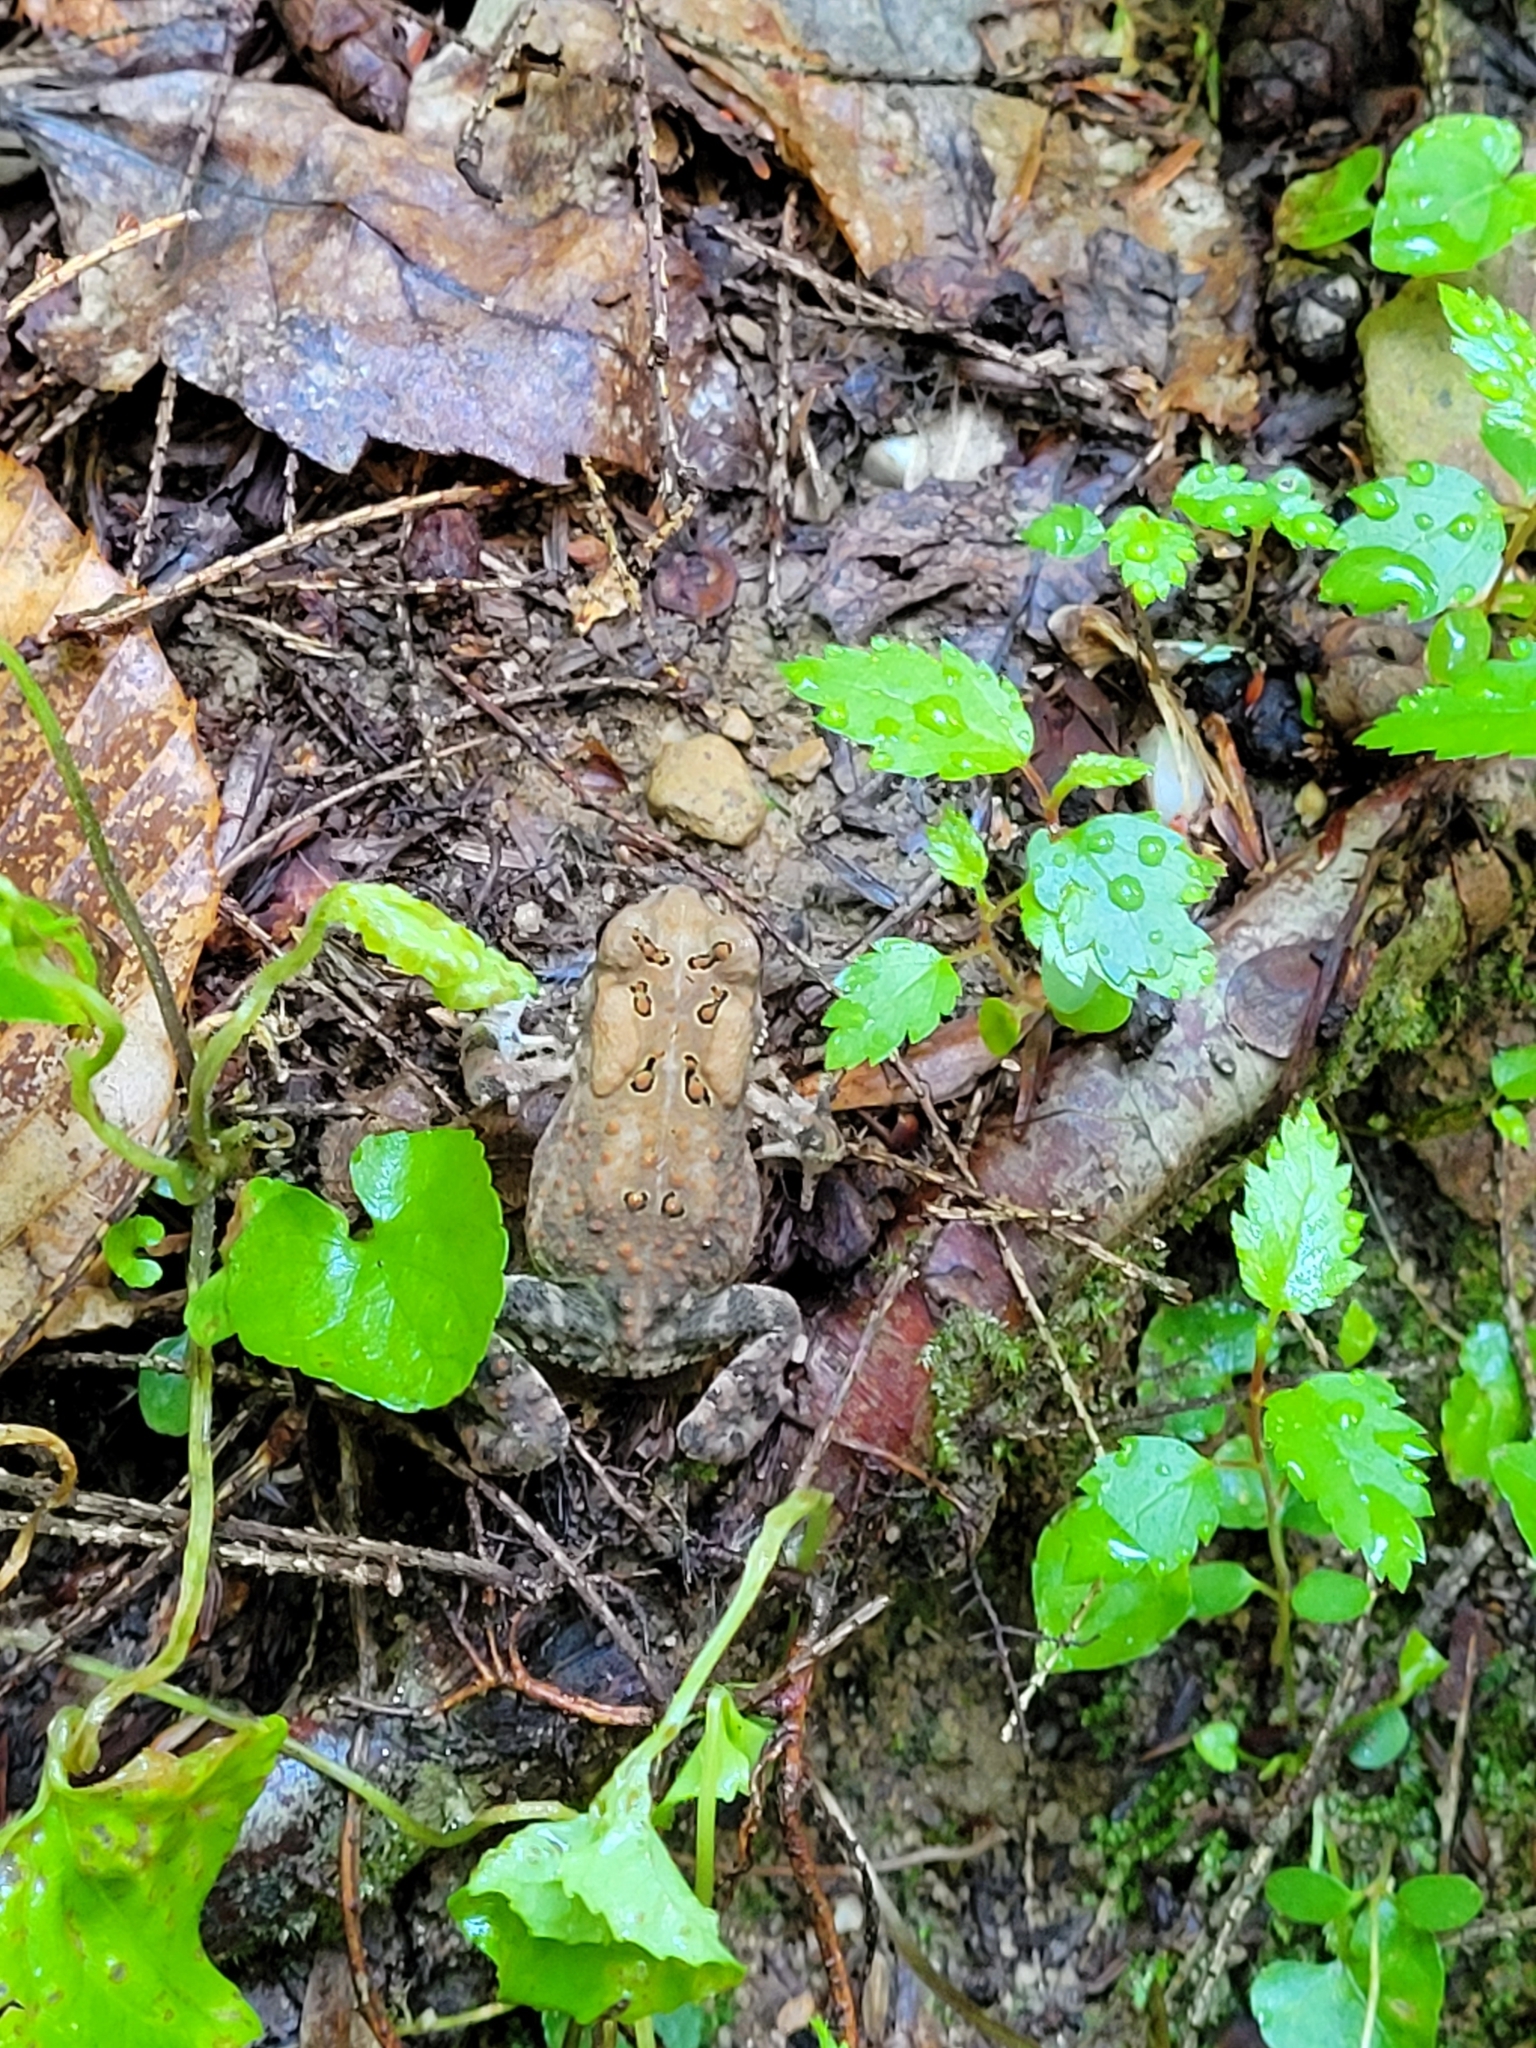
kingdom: Animalia
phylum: Chordata
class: Amphibia
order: Anura
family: Bufonidae
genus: Anaxyrus
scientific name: Anaxyrus americanus
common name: American toad
